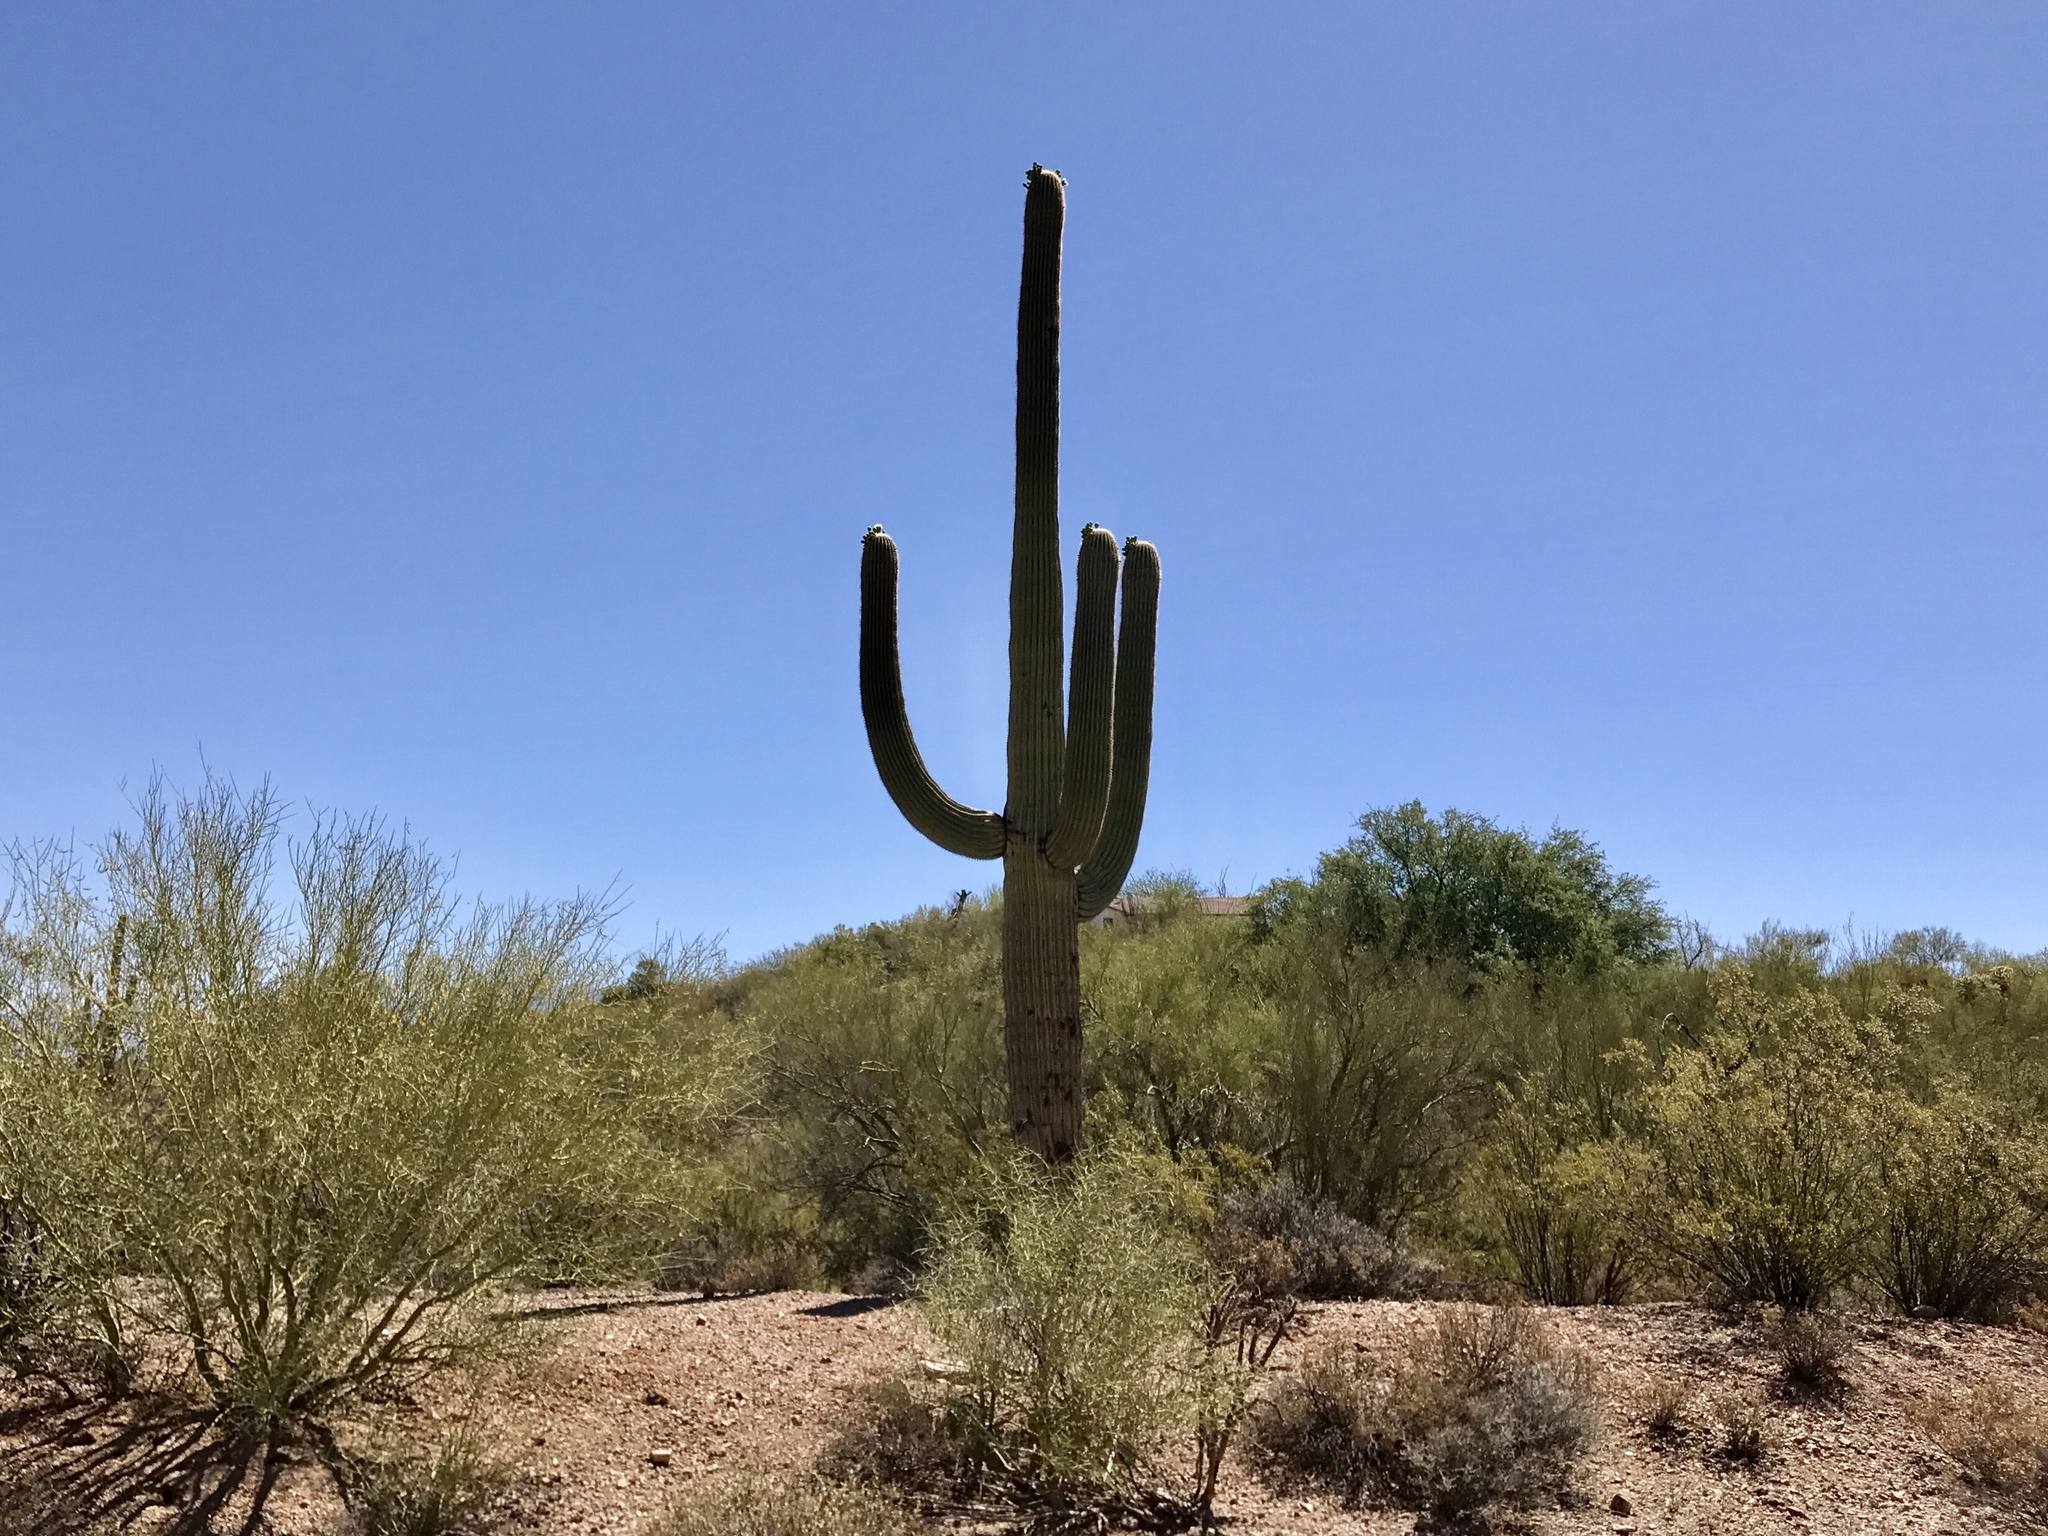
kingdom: Plantae
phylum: Tracheophyta
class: Magnoliopsida
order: Caryophyllales
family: Cactaceae
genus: Carnegiea
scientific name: Carnegiea gigantea
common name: Saguaro
